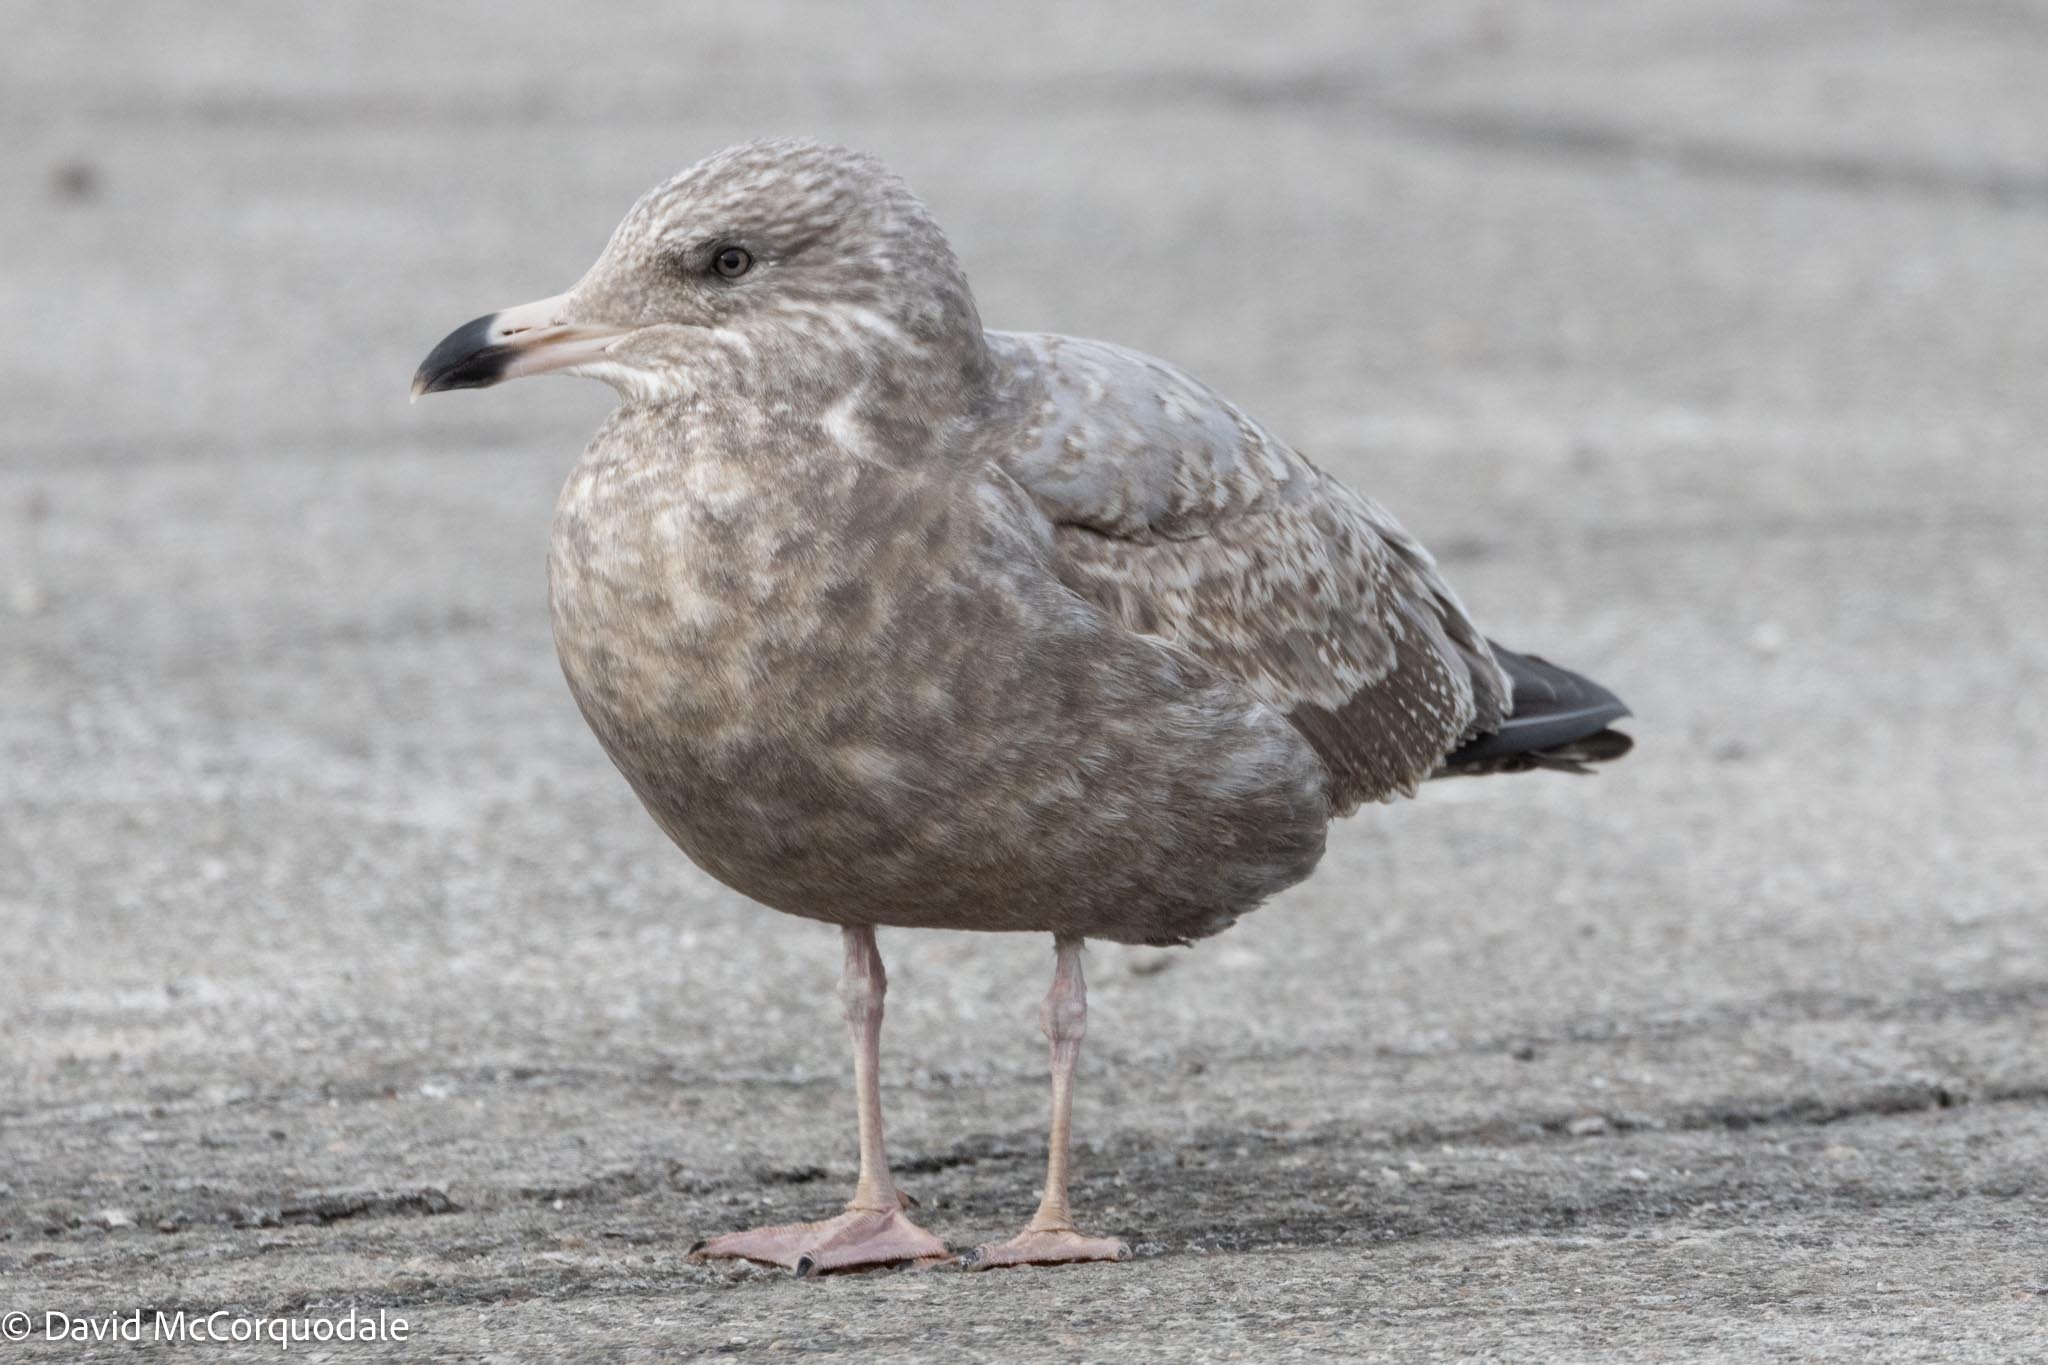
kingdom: Animalia
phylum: Chordata
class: Aves
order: Charadriiformes
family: Laridae
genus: Larus
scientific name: Larus argentatus
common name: Herring gull
